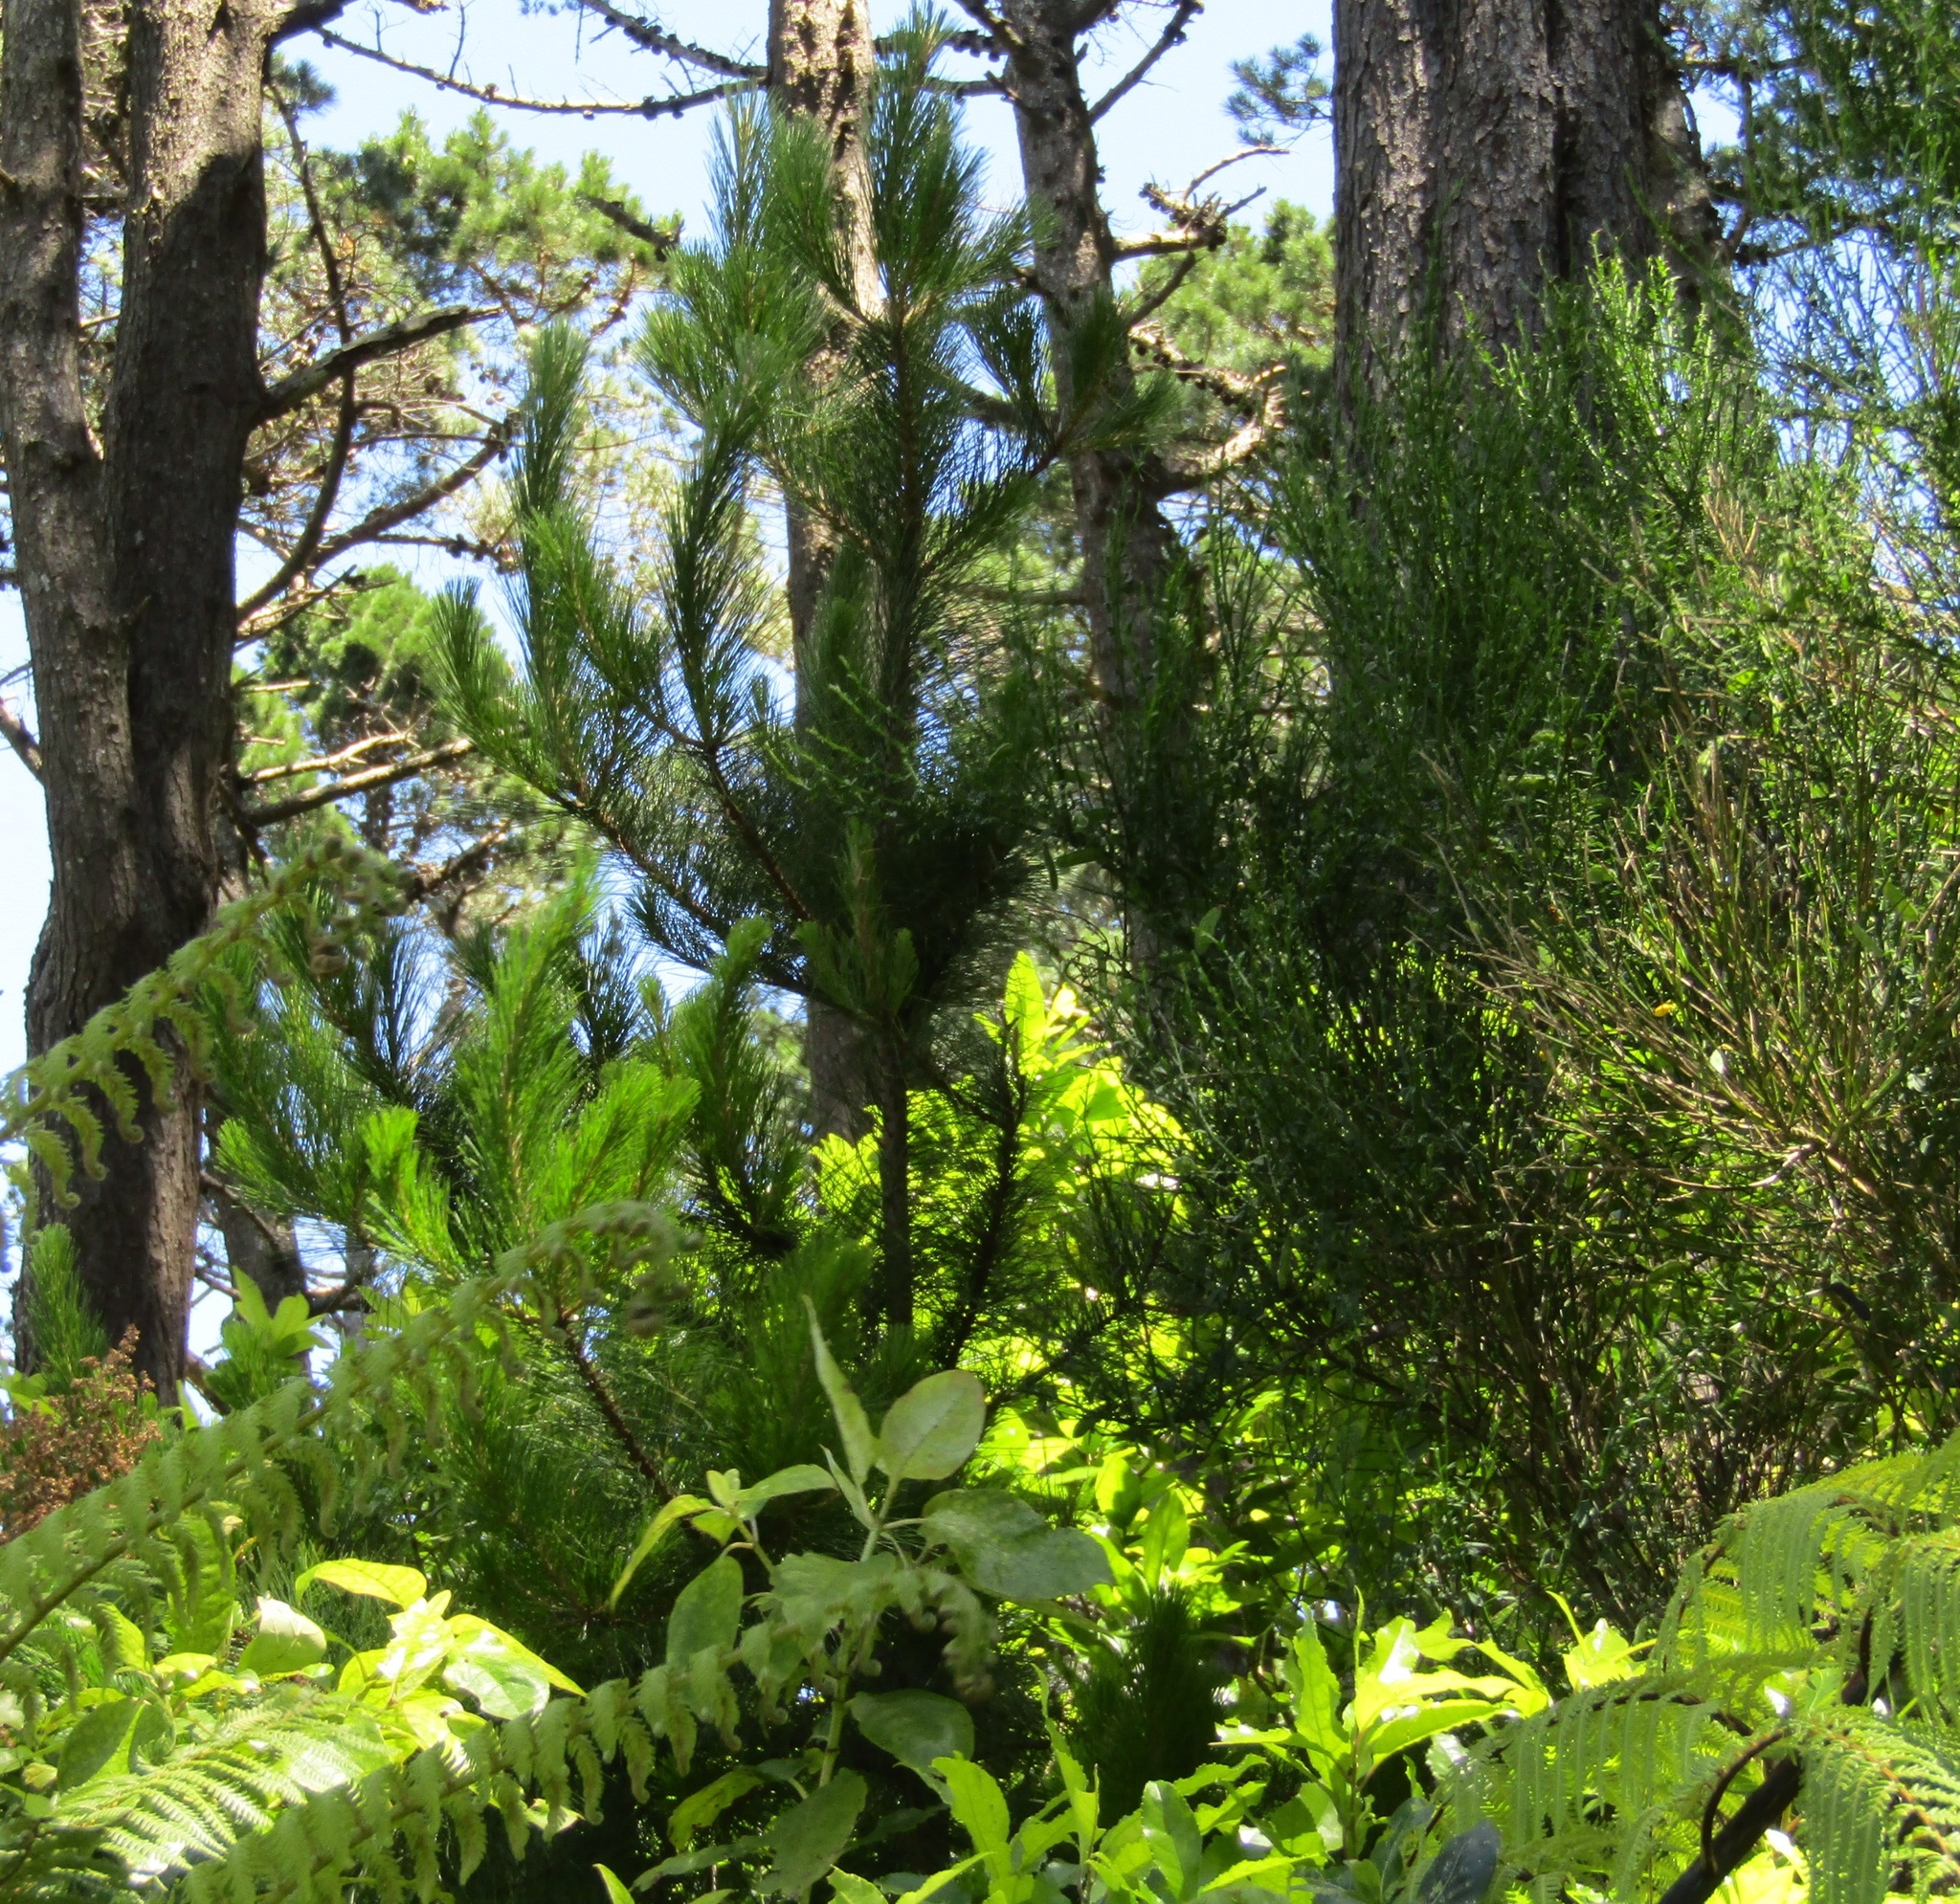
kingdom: Plantae
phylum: Tracheophyta
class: Pinopsida
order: Pinales
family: Pinaceae
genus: Pinus
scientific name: Pinus radiata
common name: Monterey pine
